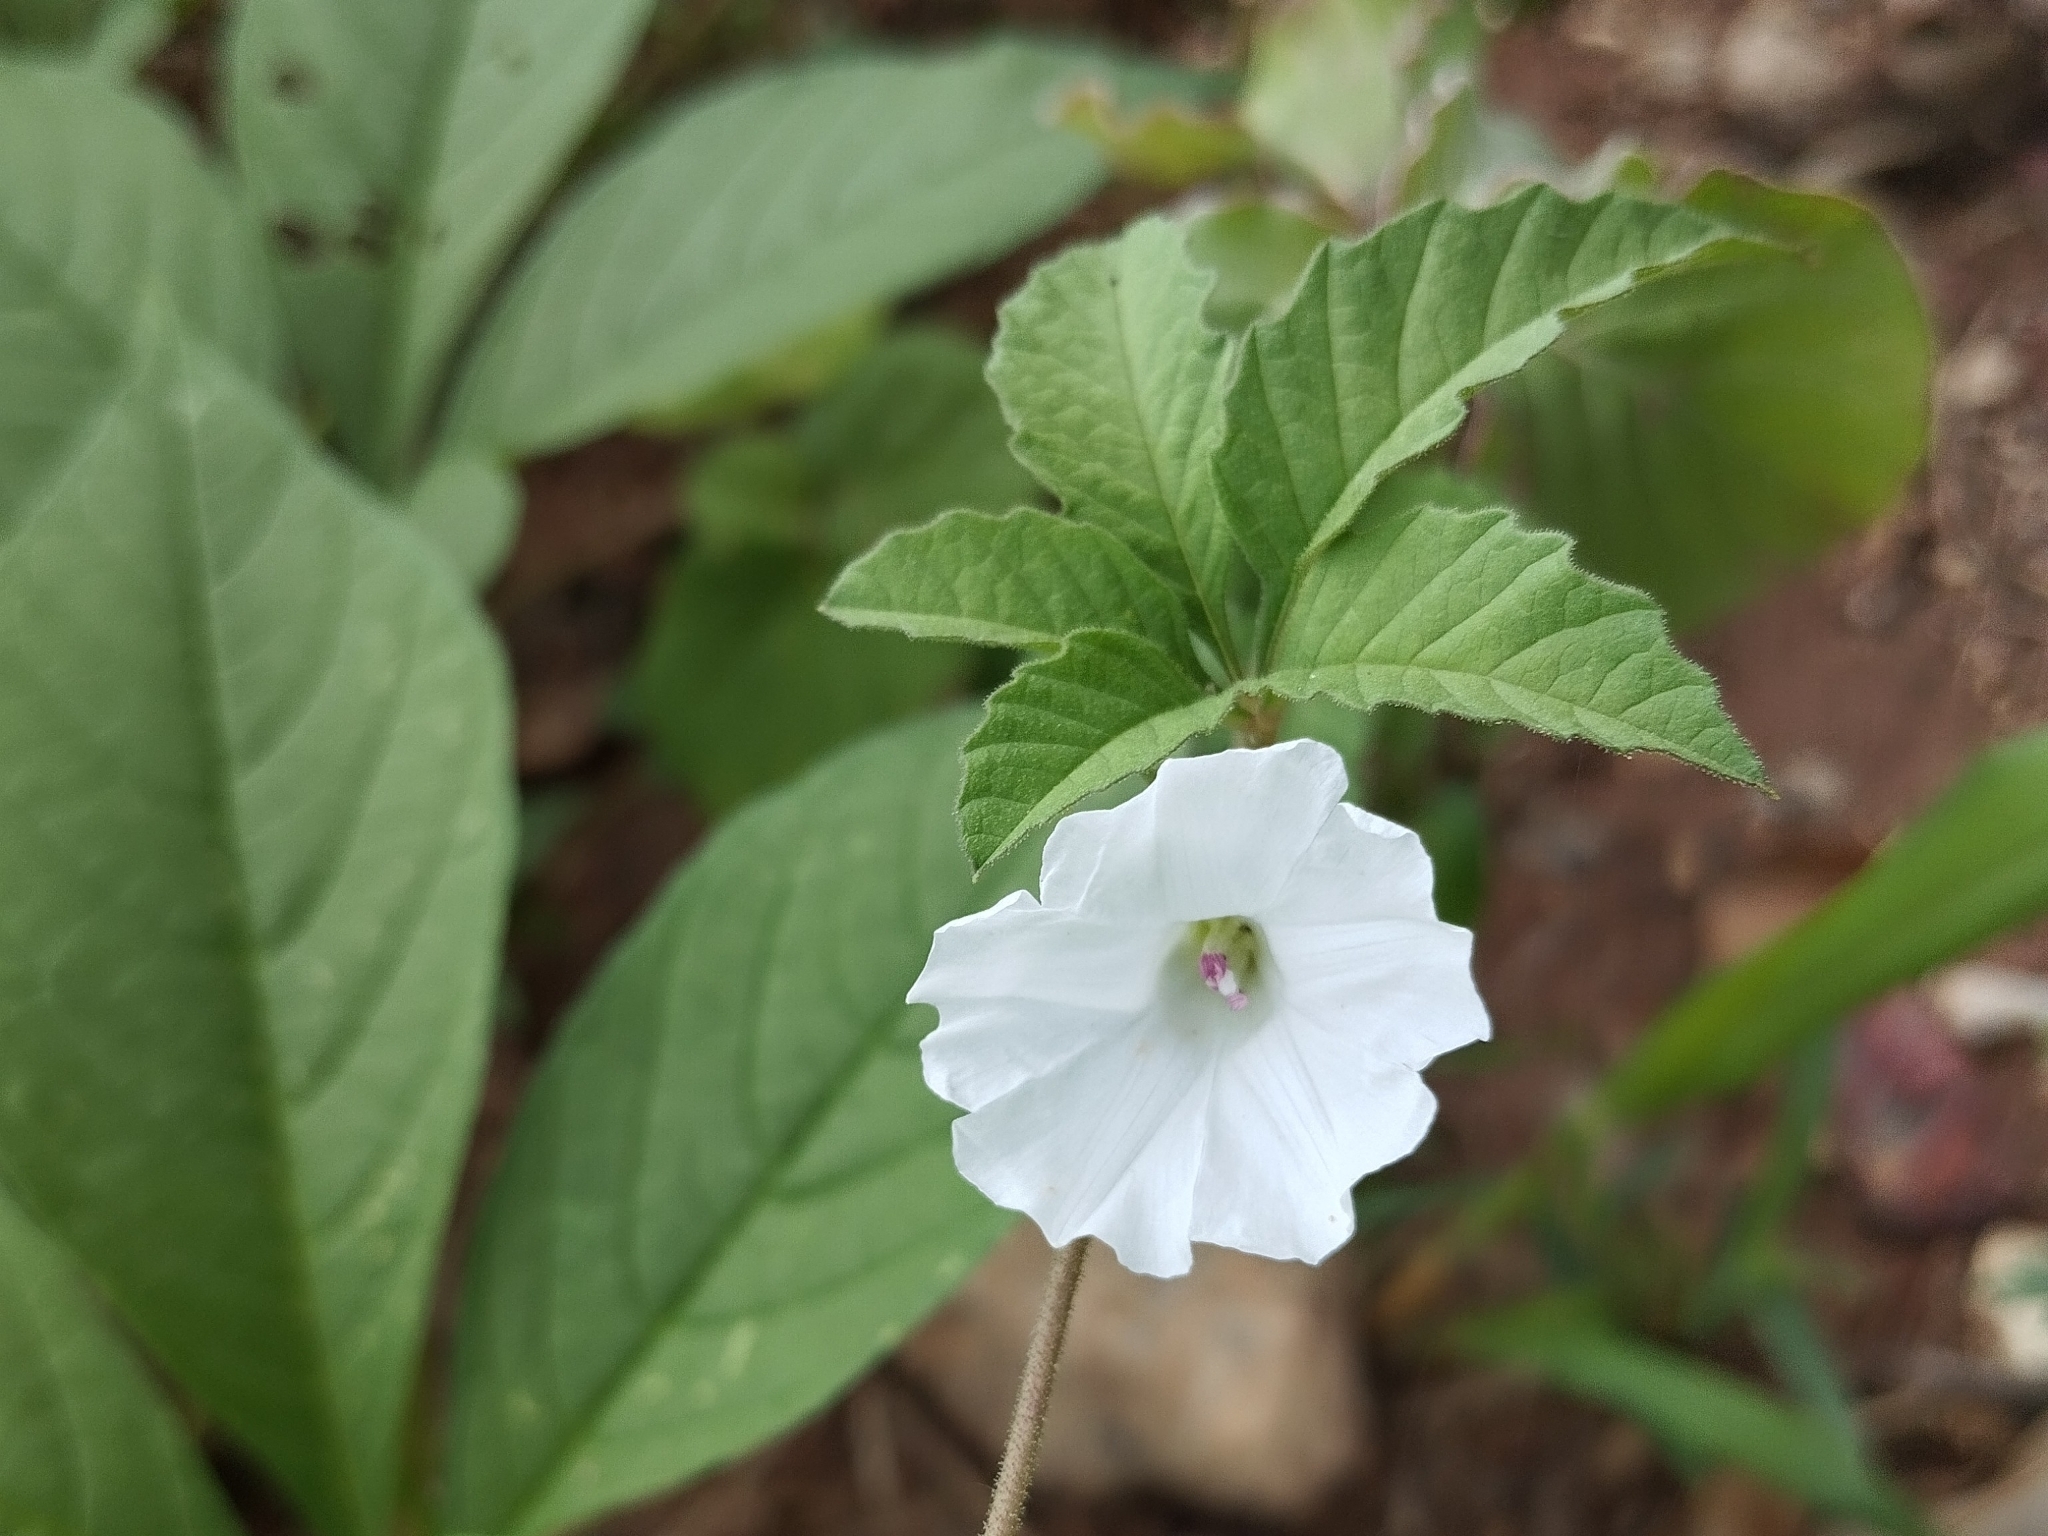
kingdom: Plantae
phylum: Tracheophyta
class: Magnoliopsida
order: Solanales
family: Convolvulaceae
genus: Distimake
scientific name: Distimake cissoides
